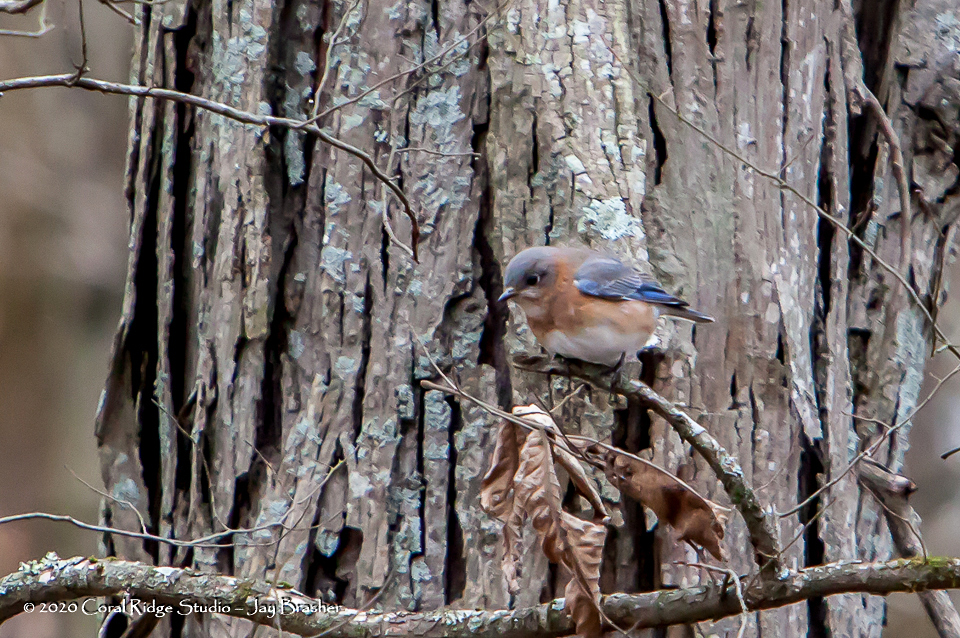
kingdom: Animalia
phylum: Chordata
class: Aves
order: Passeriformes
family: Turdidae
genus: Sialia
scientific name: Sialia sialis
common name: Eastern bluebird
